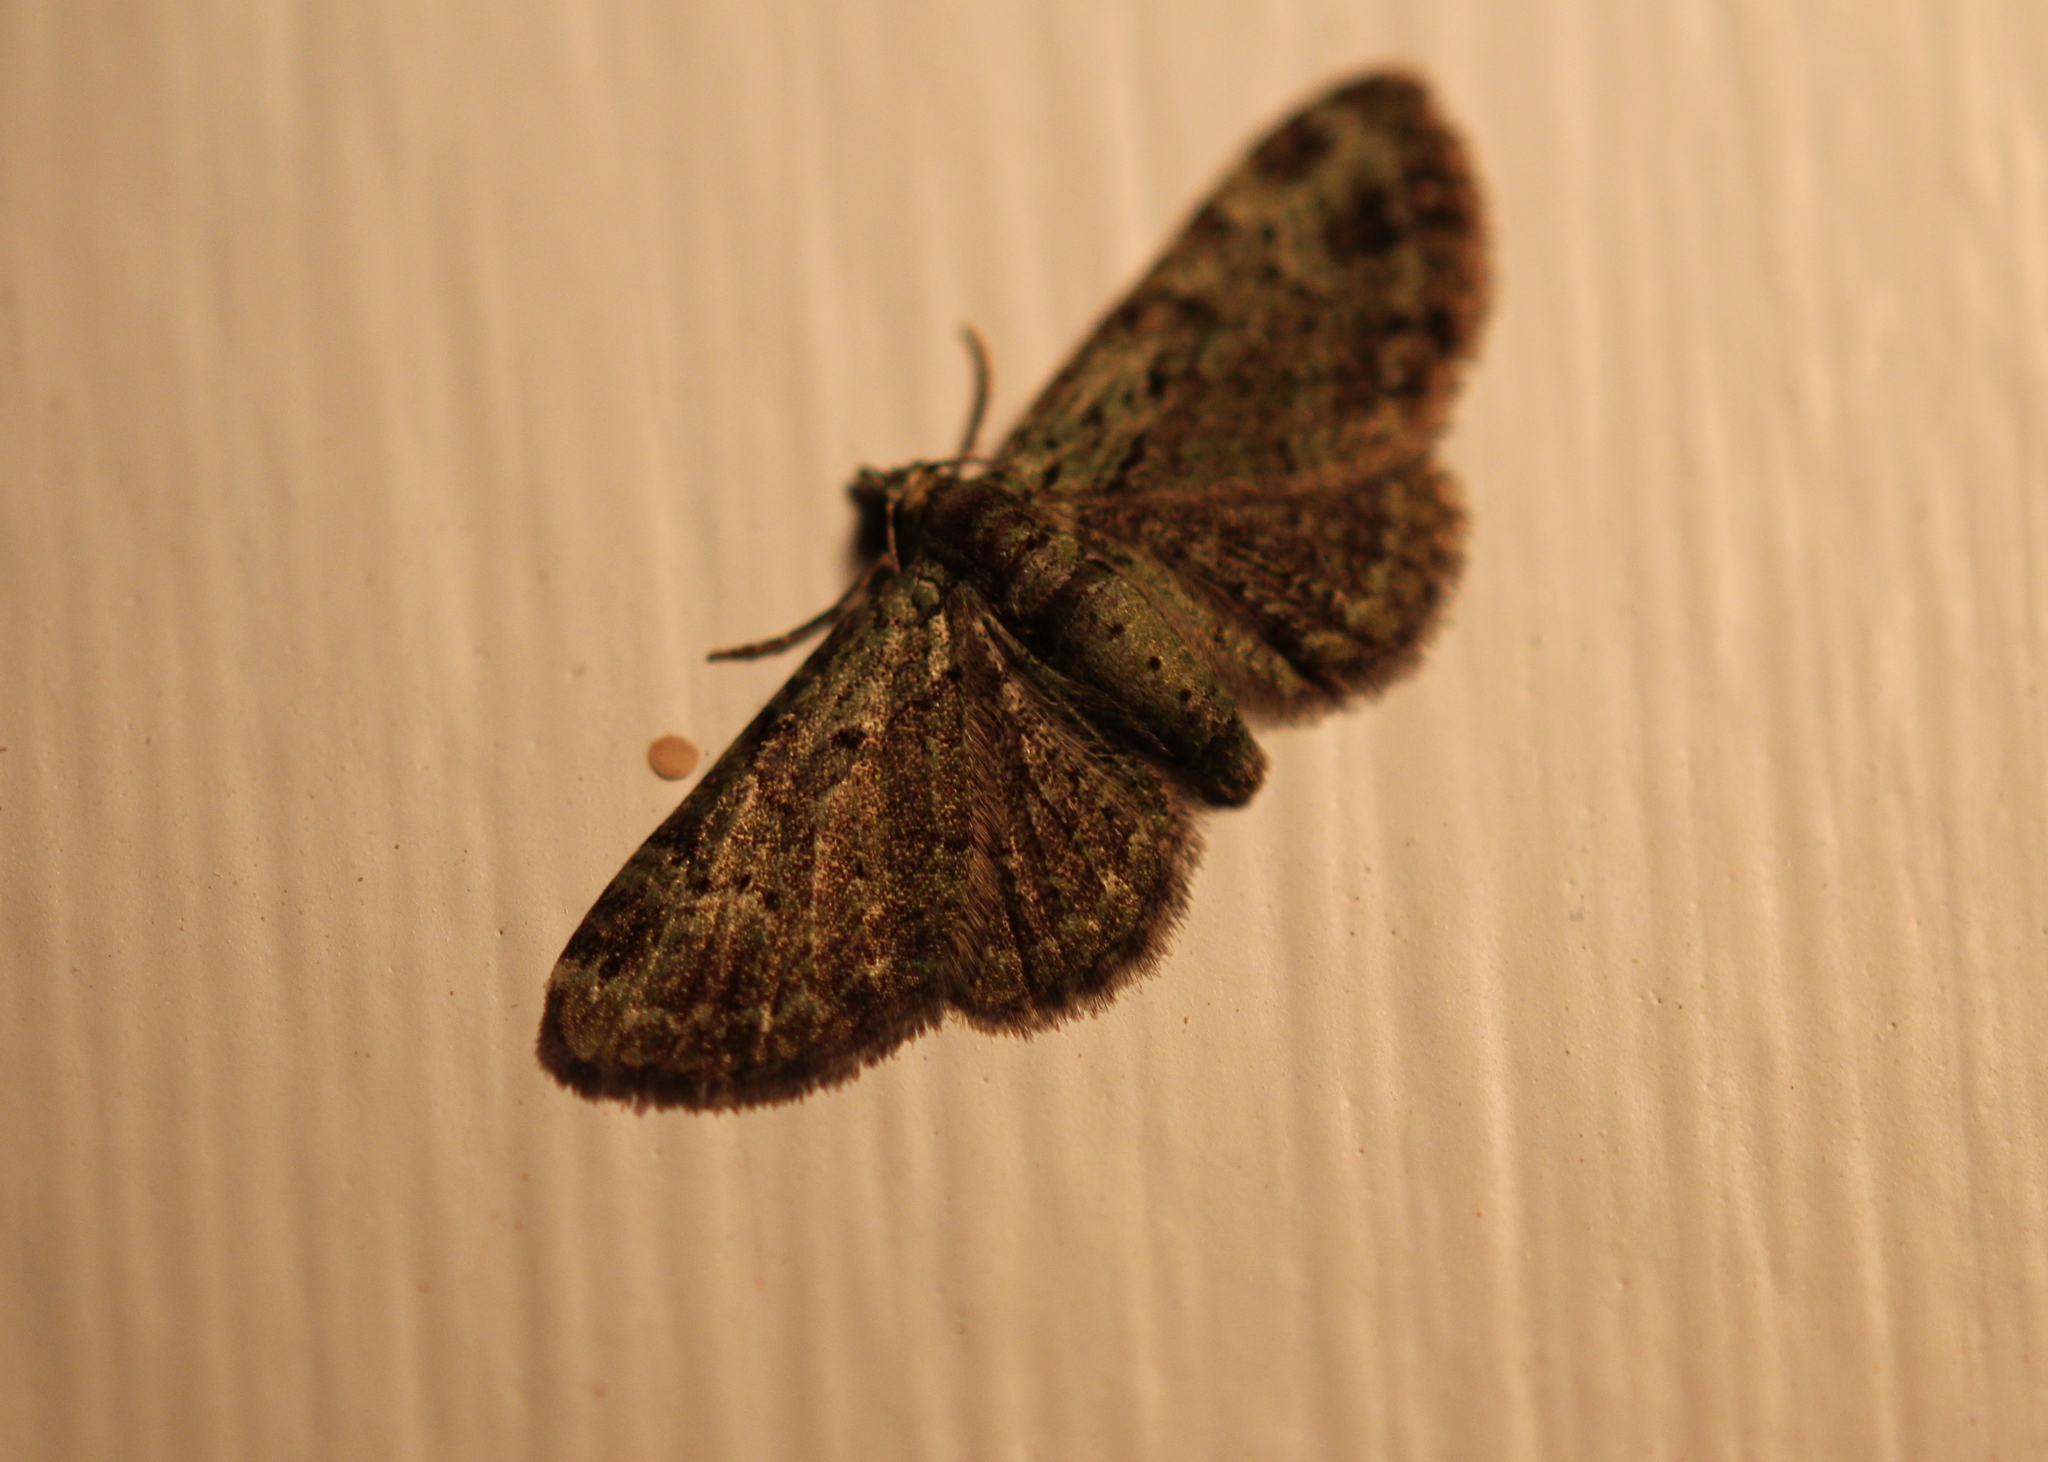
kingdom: Animalia
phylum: Arthropoda
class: Insecta
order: Lepidoptera
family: Geometridae
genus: Pasiphila
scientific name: Pasiphila rectangulata
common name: Green pug
